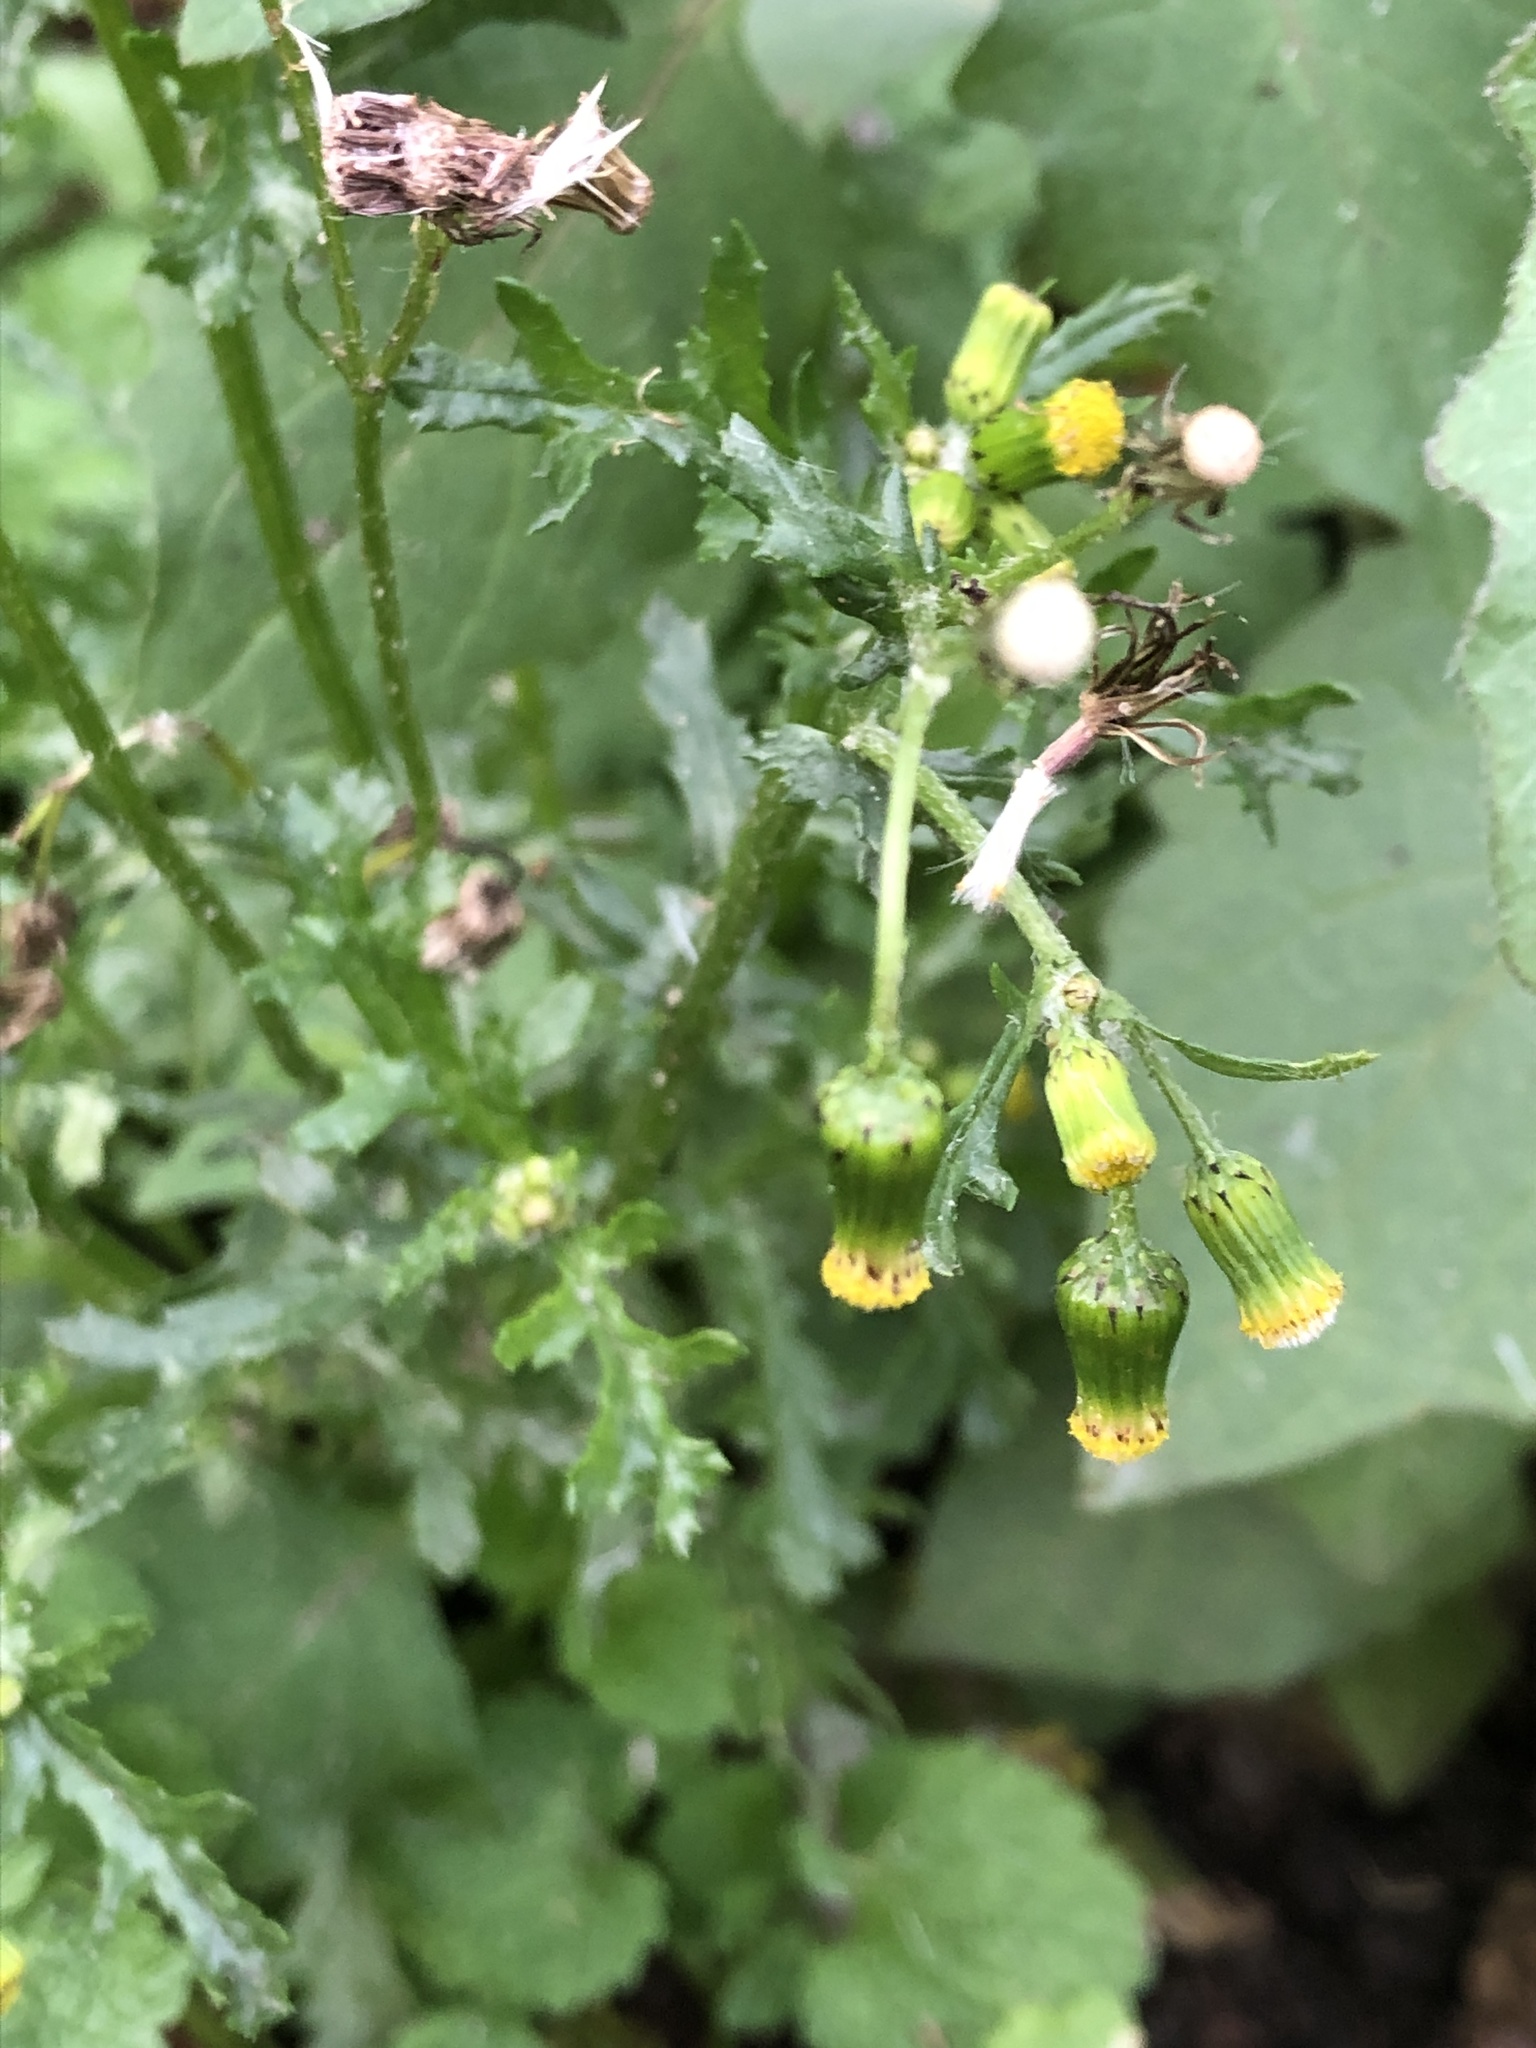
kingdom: Plantae
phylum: Tracheophyta
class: Magnoliopsida
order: Asterales
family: Asteraceae
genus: Senecio
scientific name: Senecio vulgaris
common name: Old-man-in-the-spring
